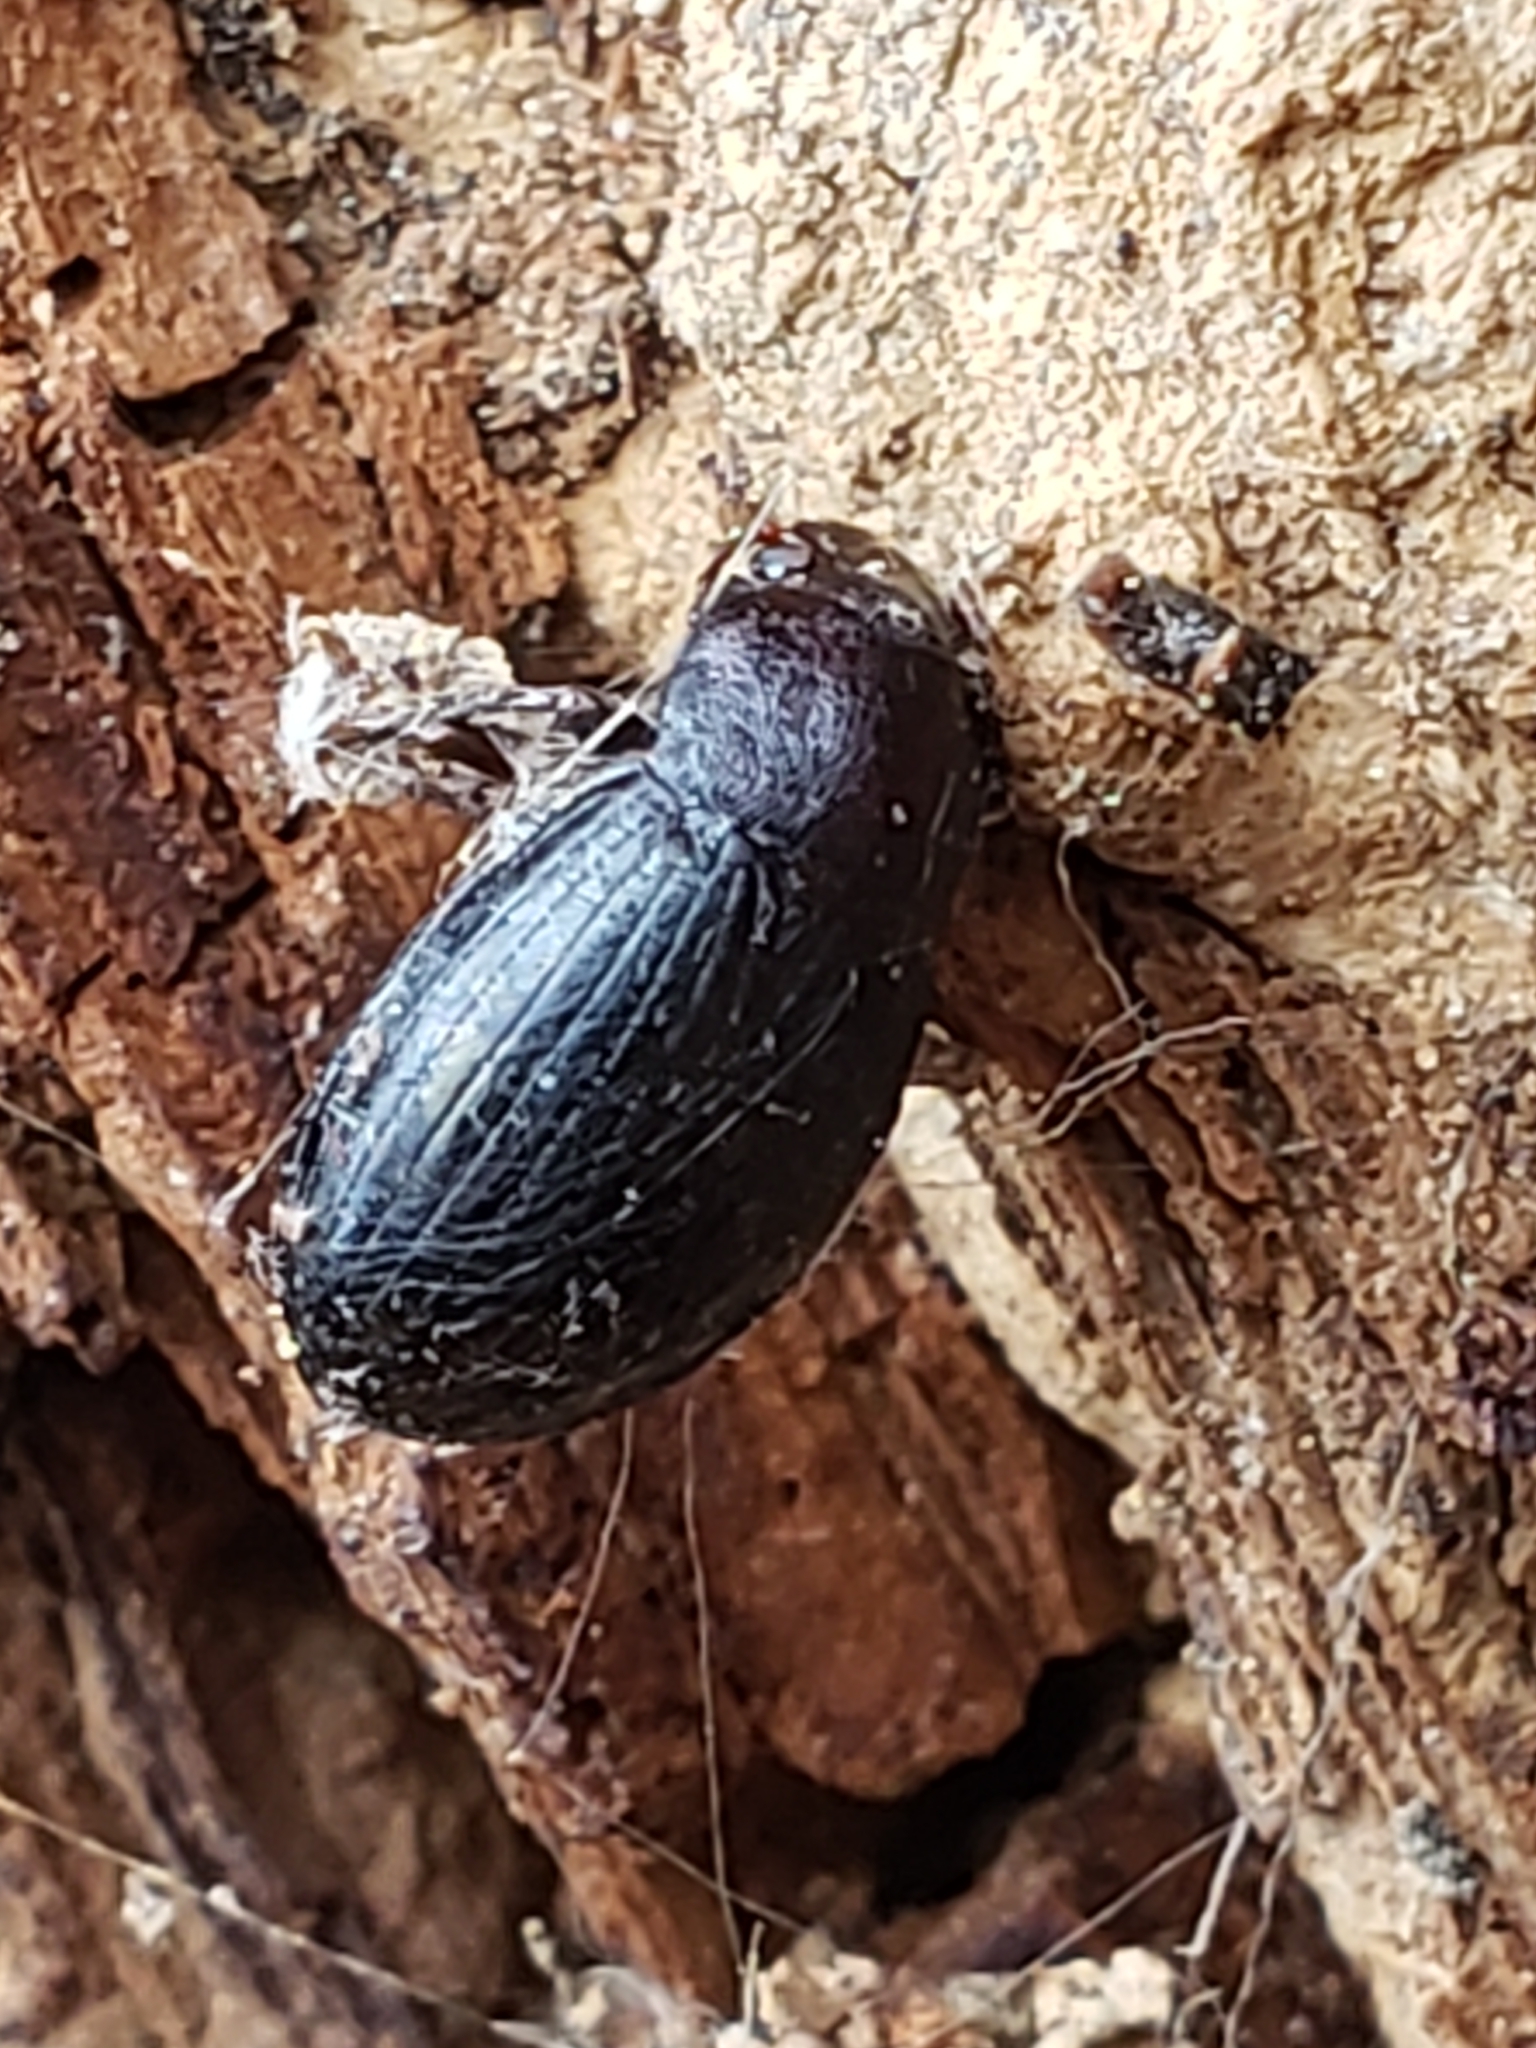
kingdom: Animalia
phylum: Arthropoda
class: Insecta
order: Coleoptera
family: Tenebrionidae
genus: Nalassus
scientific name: Nalassus aereus
